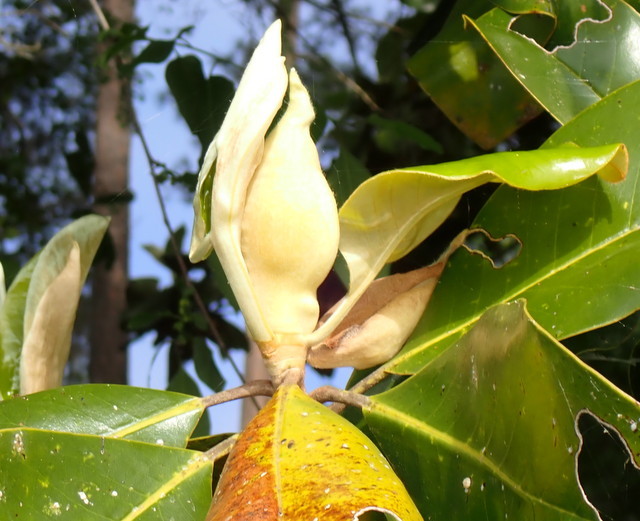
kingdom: Plantae
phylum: Tracheophyta
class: Magnoliopsida
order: Magnoliales
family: Magnoliaceae
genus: Magnolia
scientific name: Magnolia grandiflora
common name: Southern magnolia
